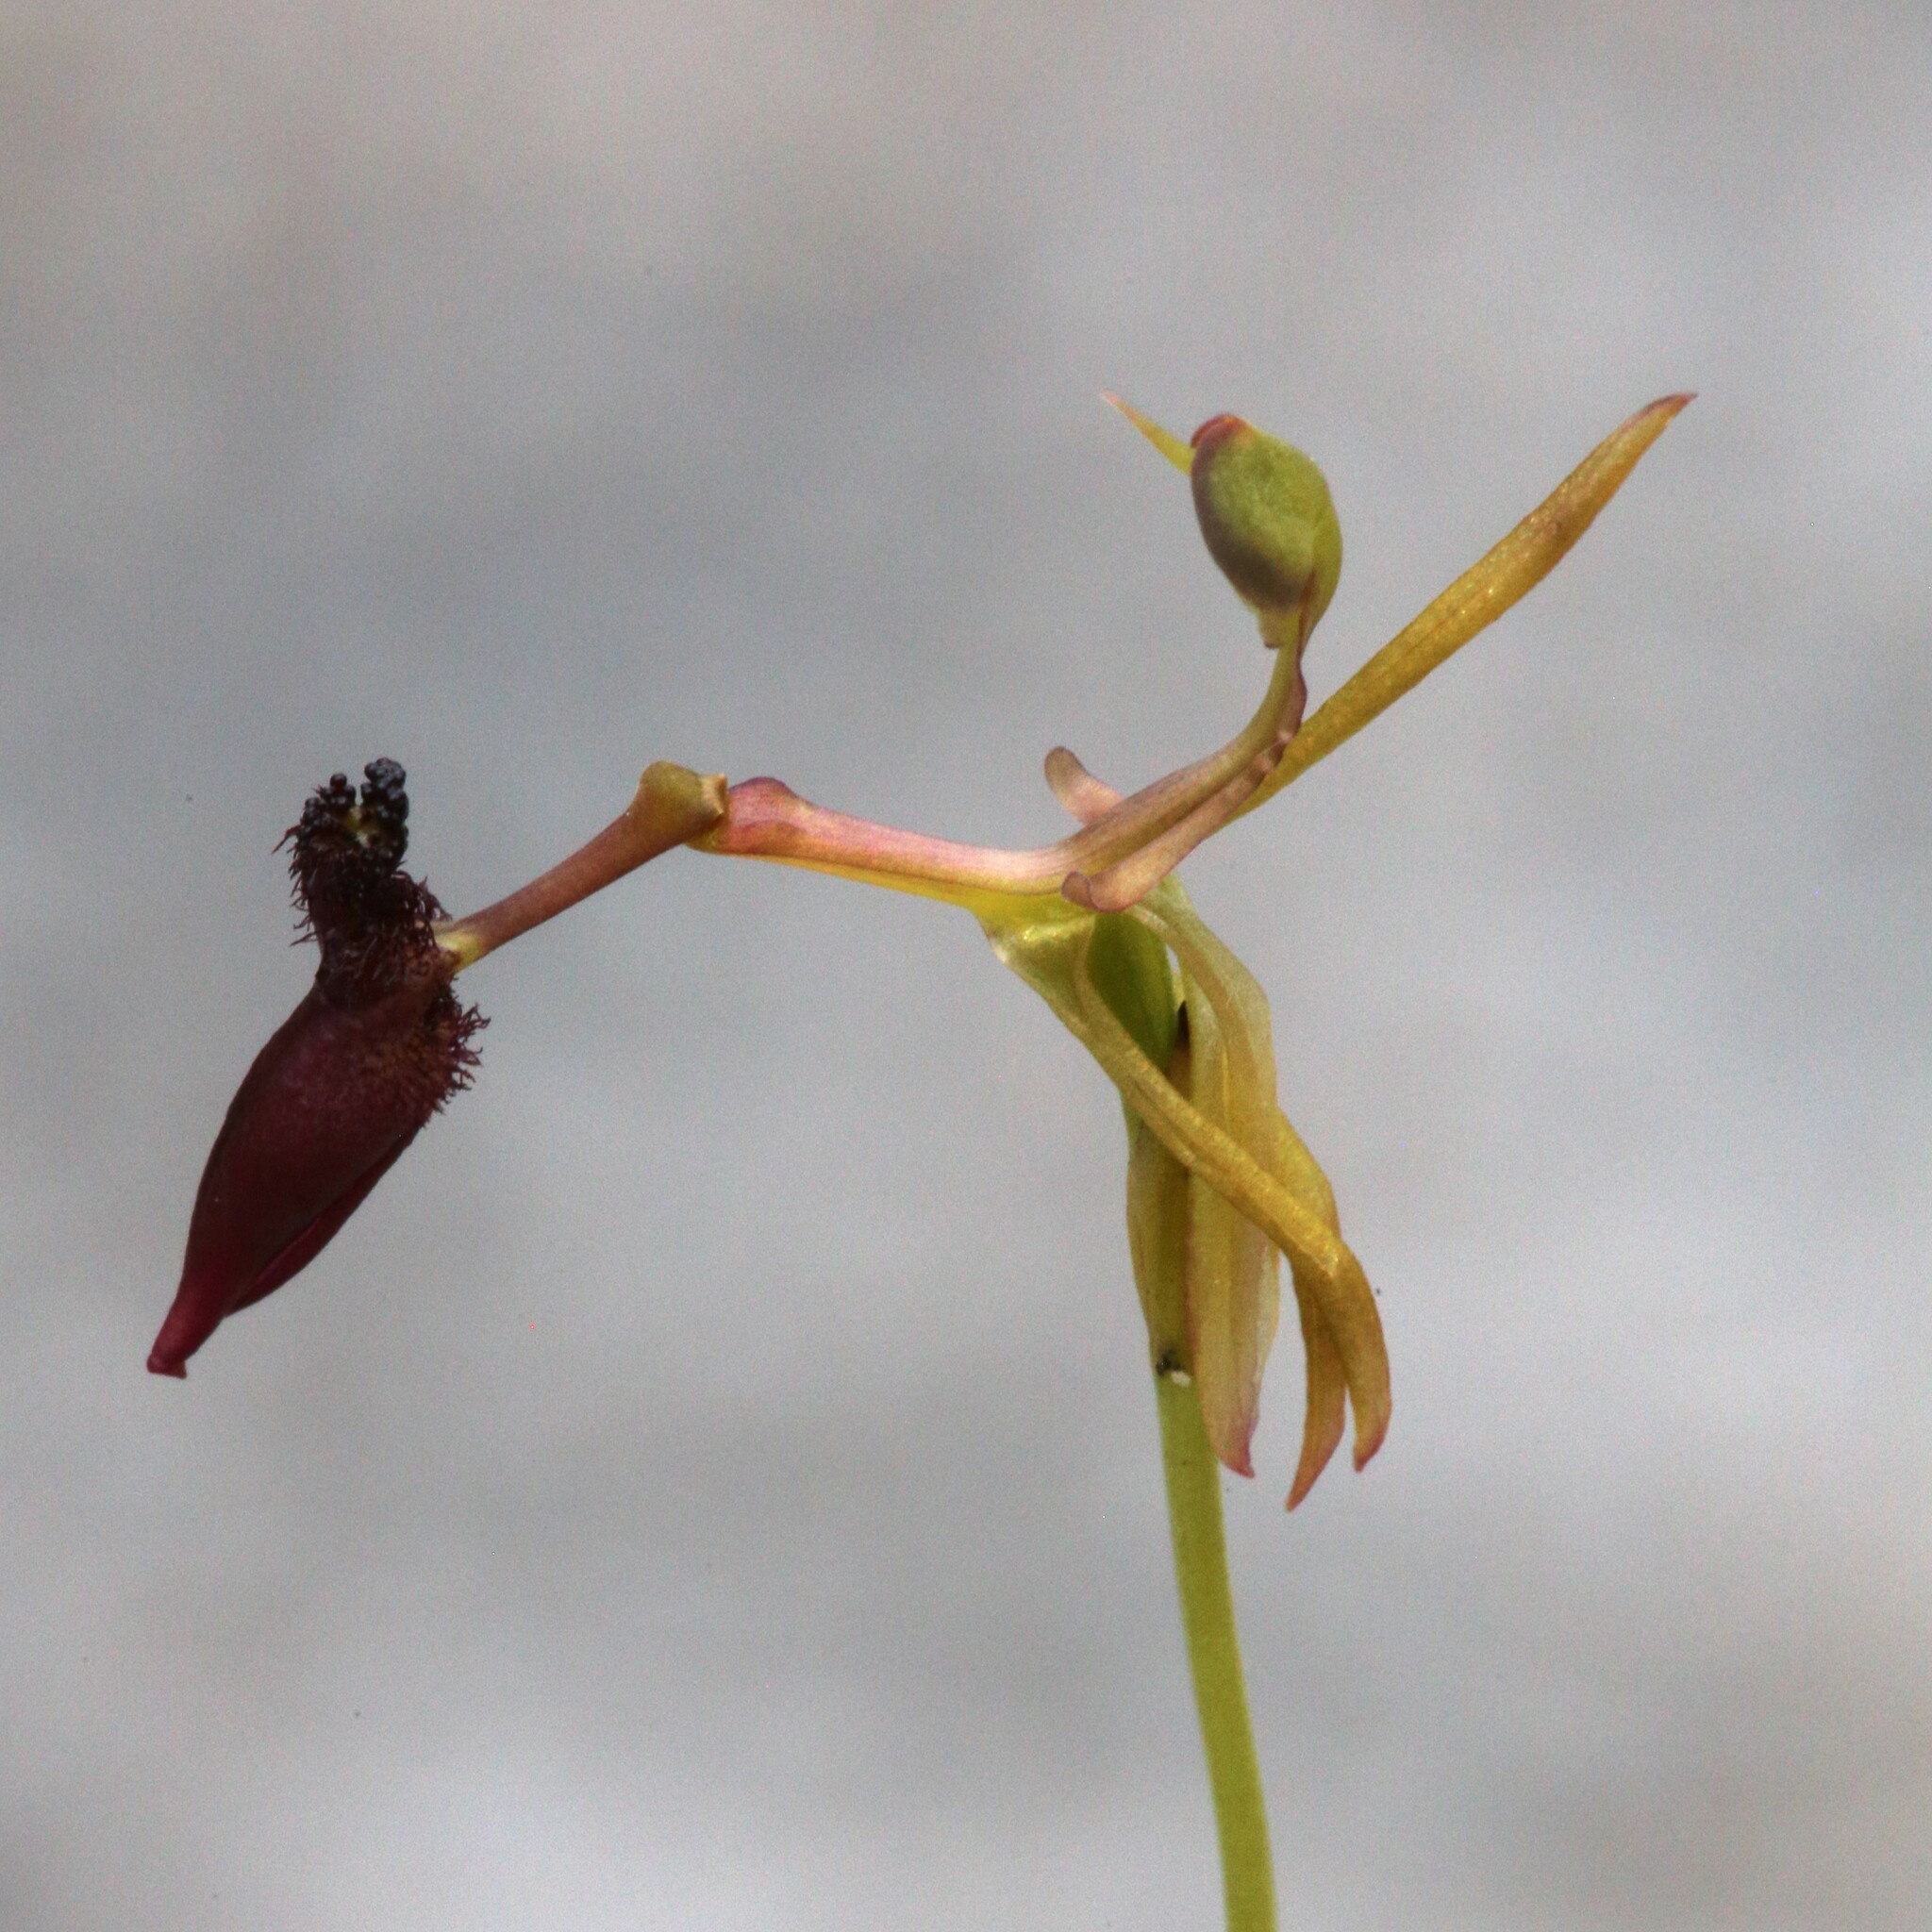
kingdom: Plantae
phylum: Tracheophyta
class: Liliopsida
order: Asparagales
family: Orchidaceae
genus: Drakaea
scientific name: Drakaea micrantha
